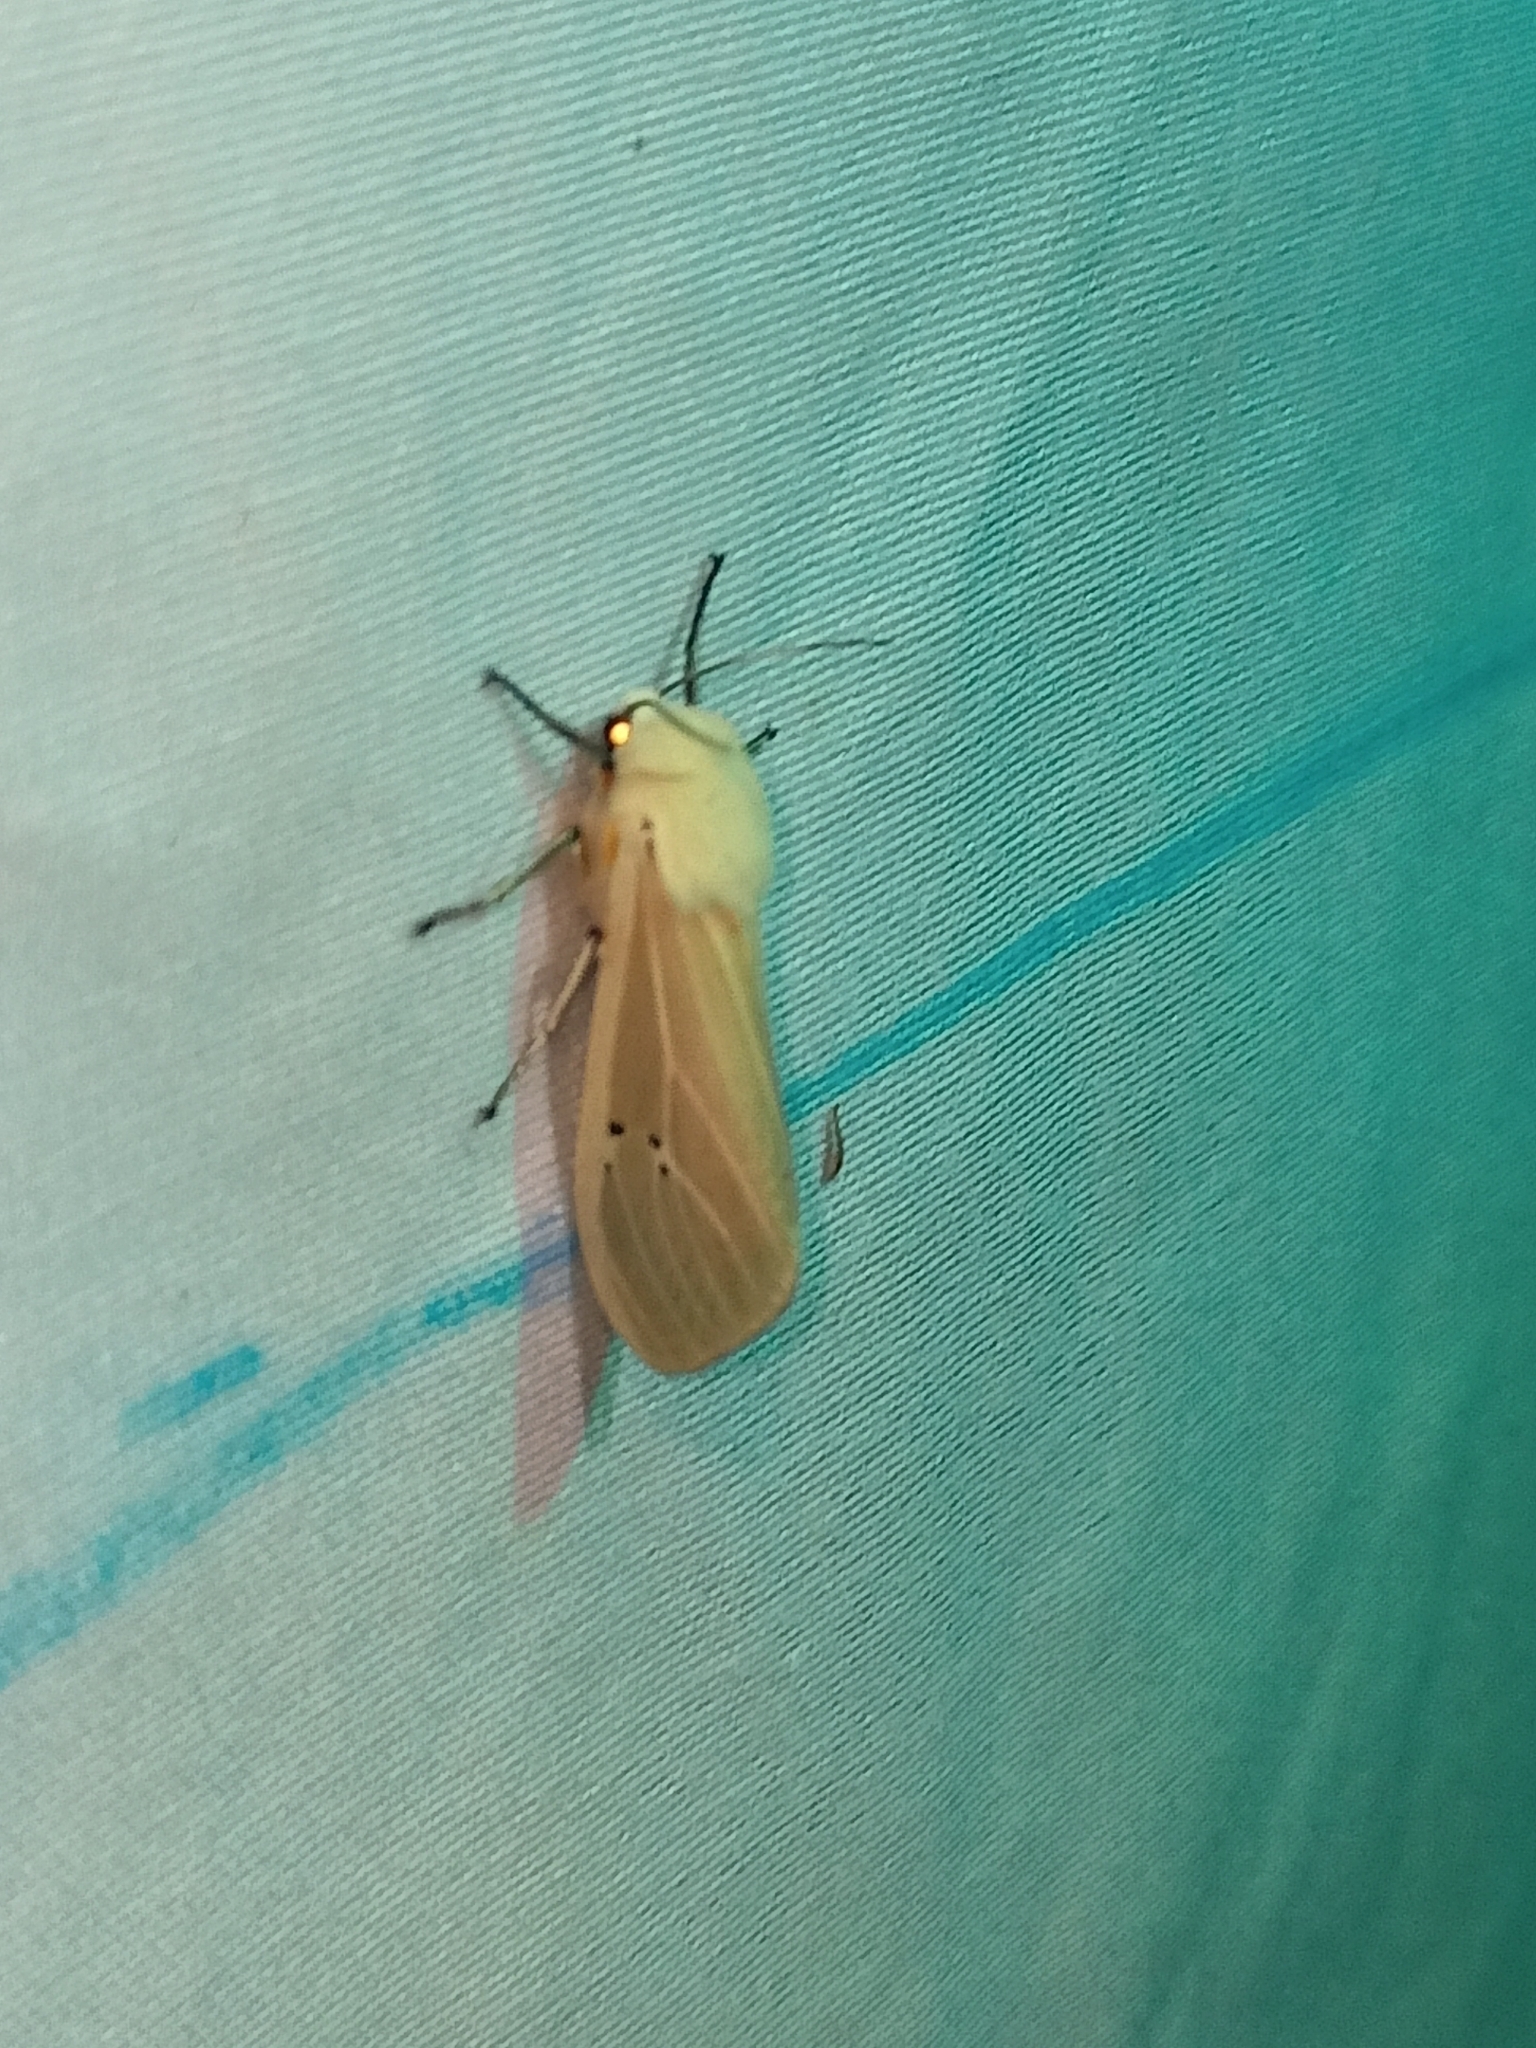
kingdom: Animalia
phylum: Arthropoda
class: Insecta
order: Lepidoptera
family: Erebidae
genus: Creatonotos
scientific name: Creatonotos transiens
